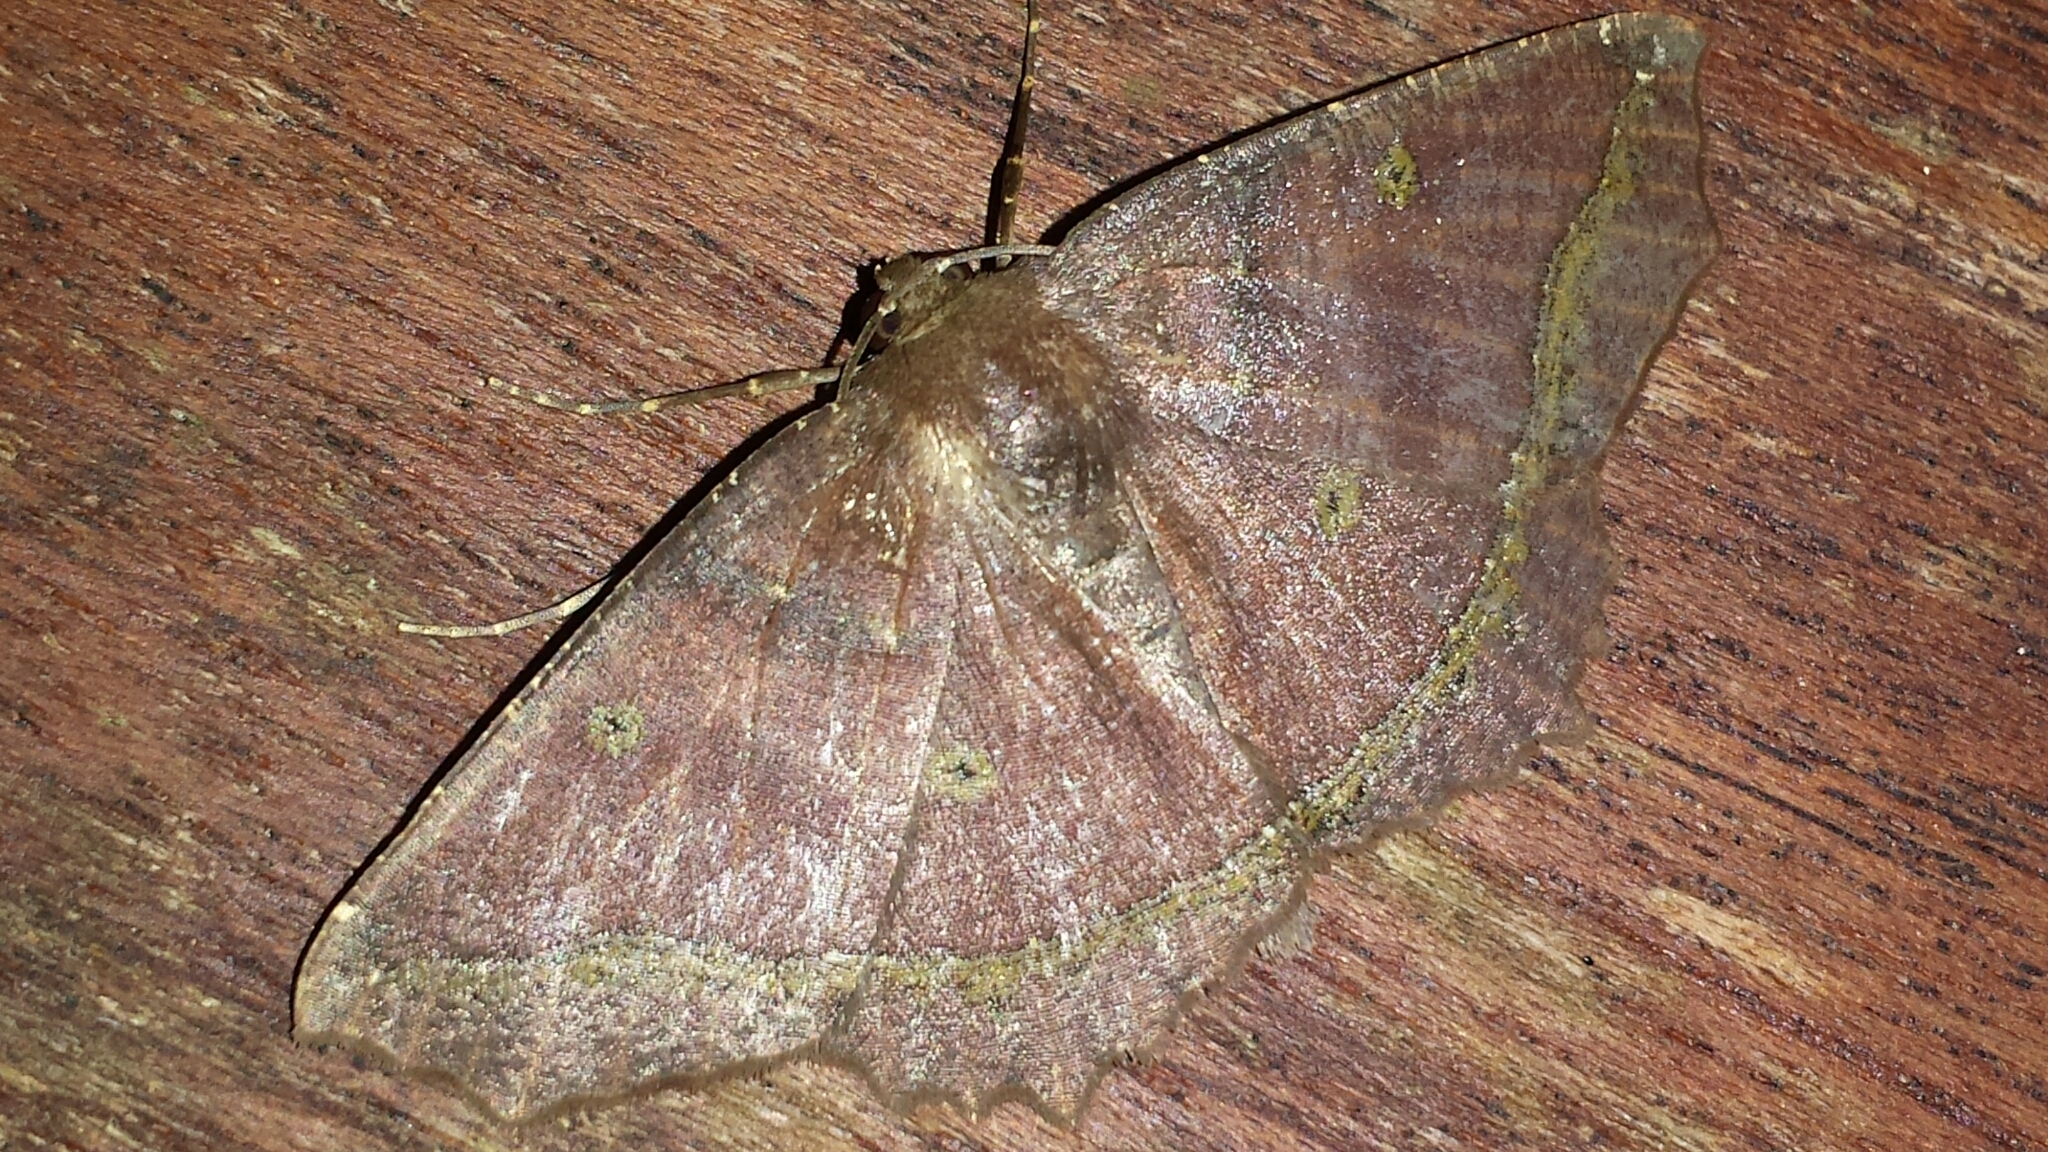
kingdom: Animalia
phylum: Arthropoda
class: Insecta
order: Lepidoptera
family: Geometridae
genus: Synnomos
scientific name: Synnomos firmamentaria
